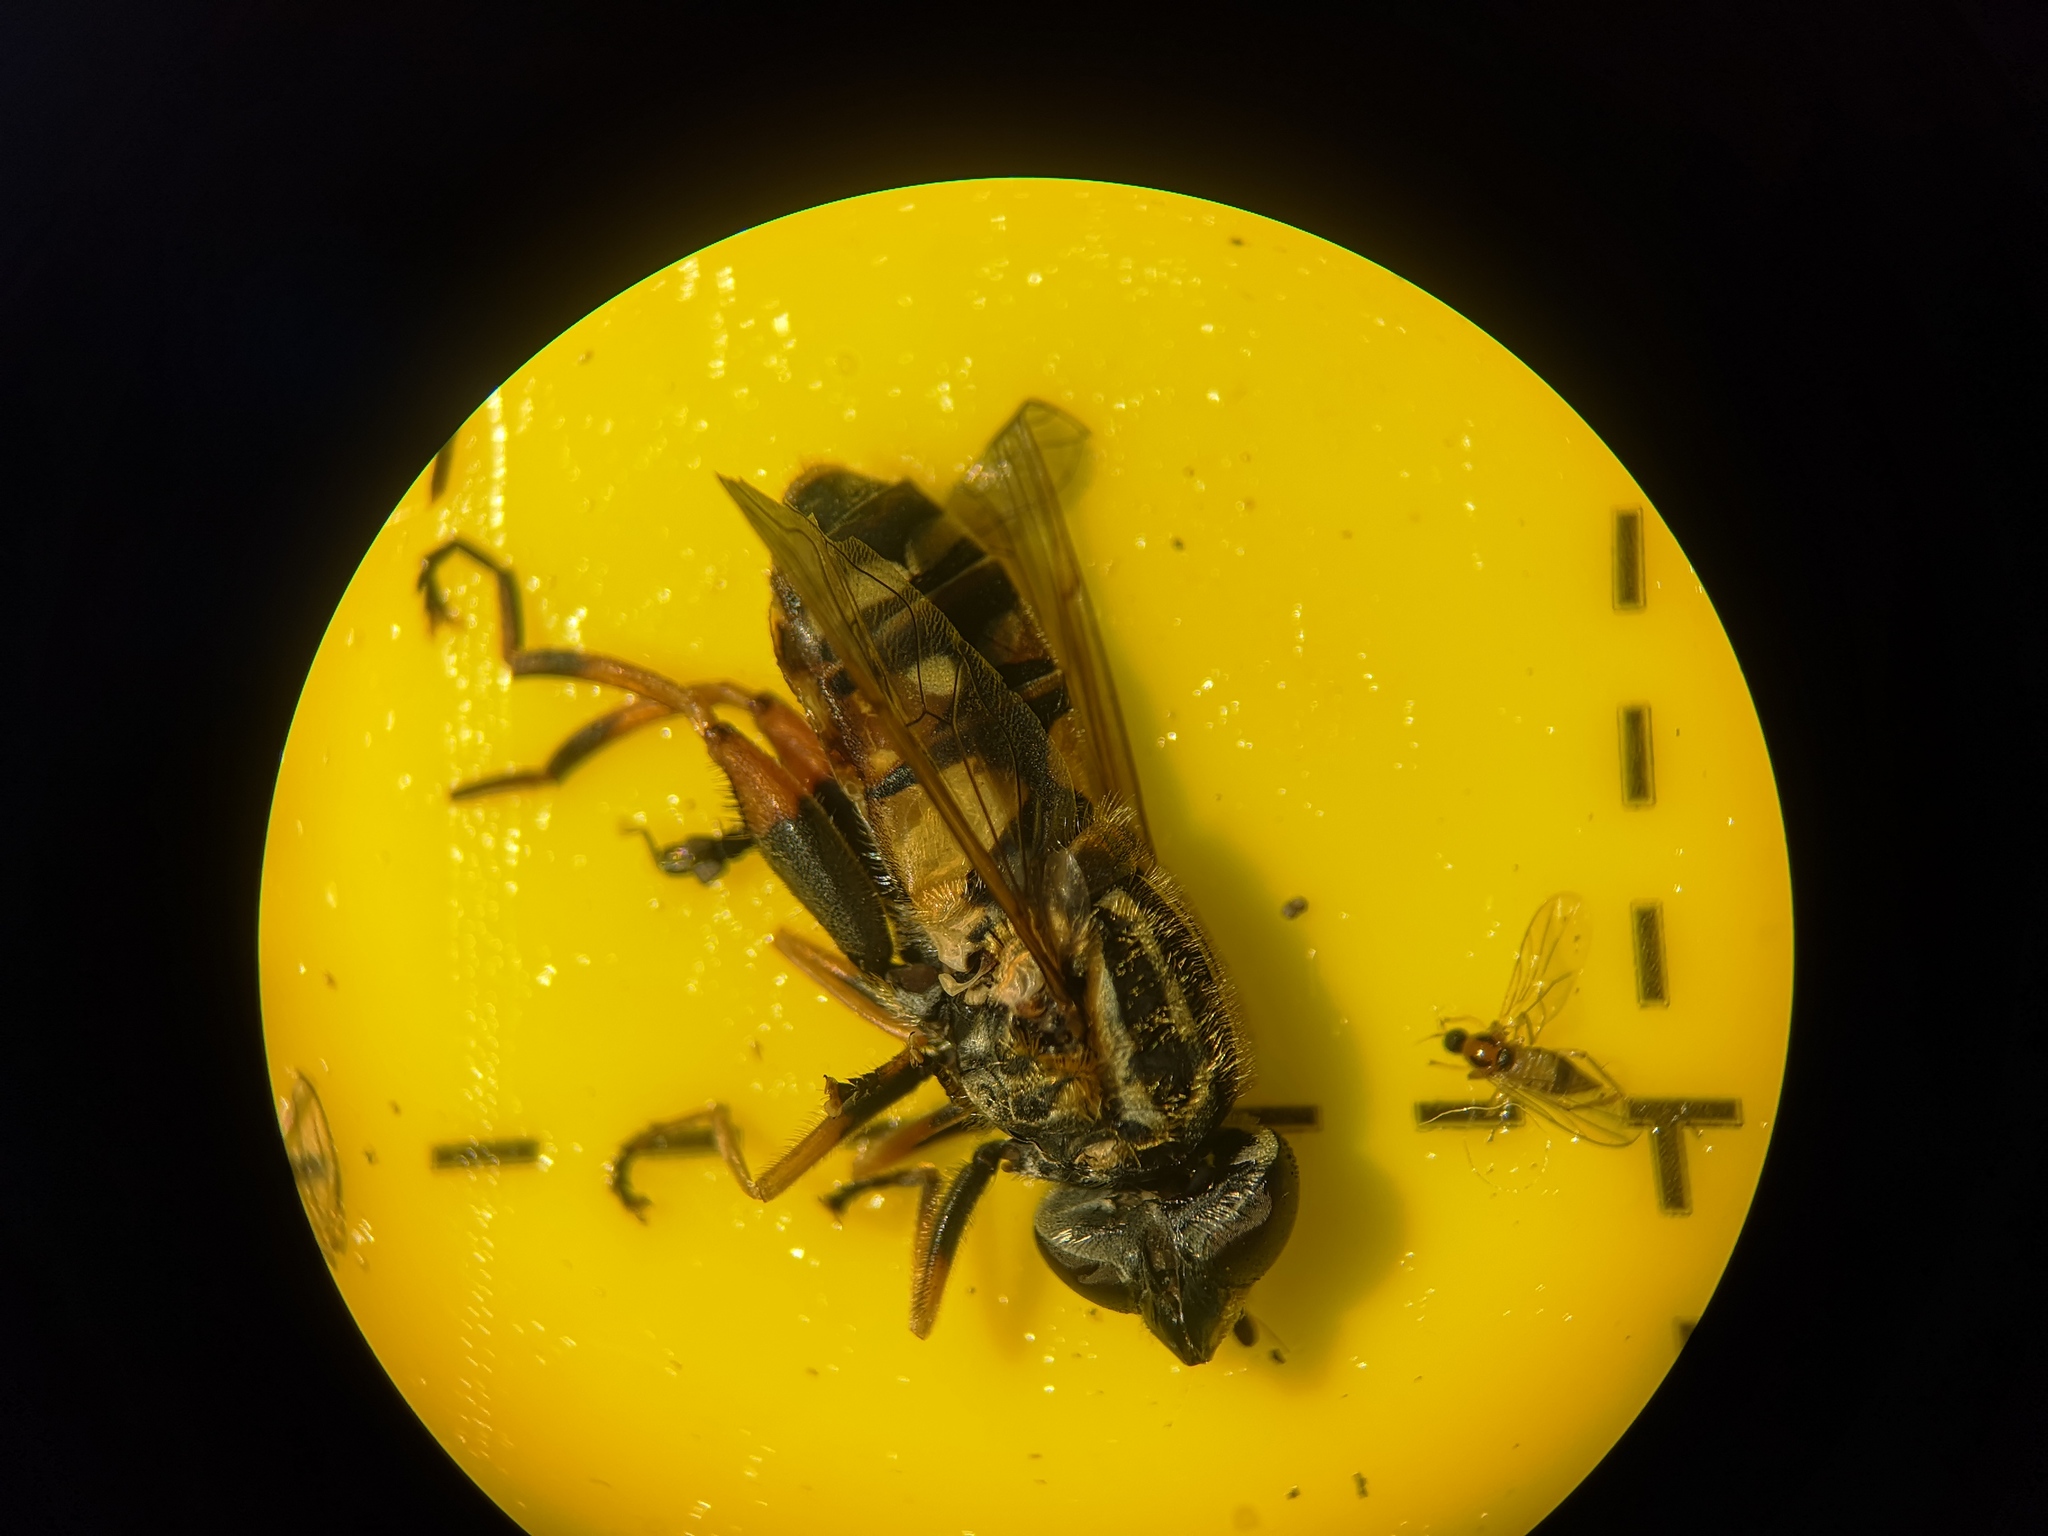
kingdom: Animalia
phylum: Arthropoda
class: Insecta
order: Diptera
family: Syrphidae
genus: Helophilus
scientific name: Helophilus pendulus
